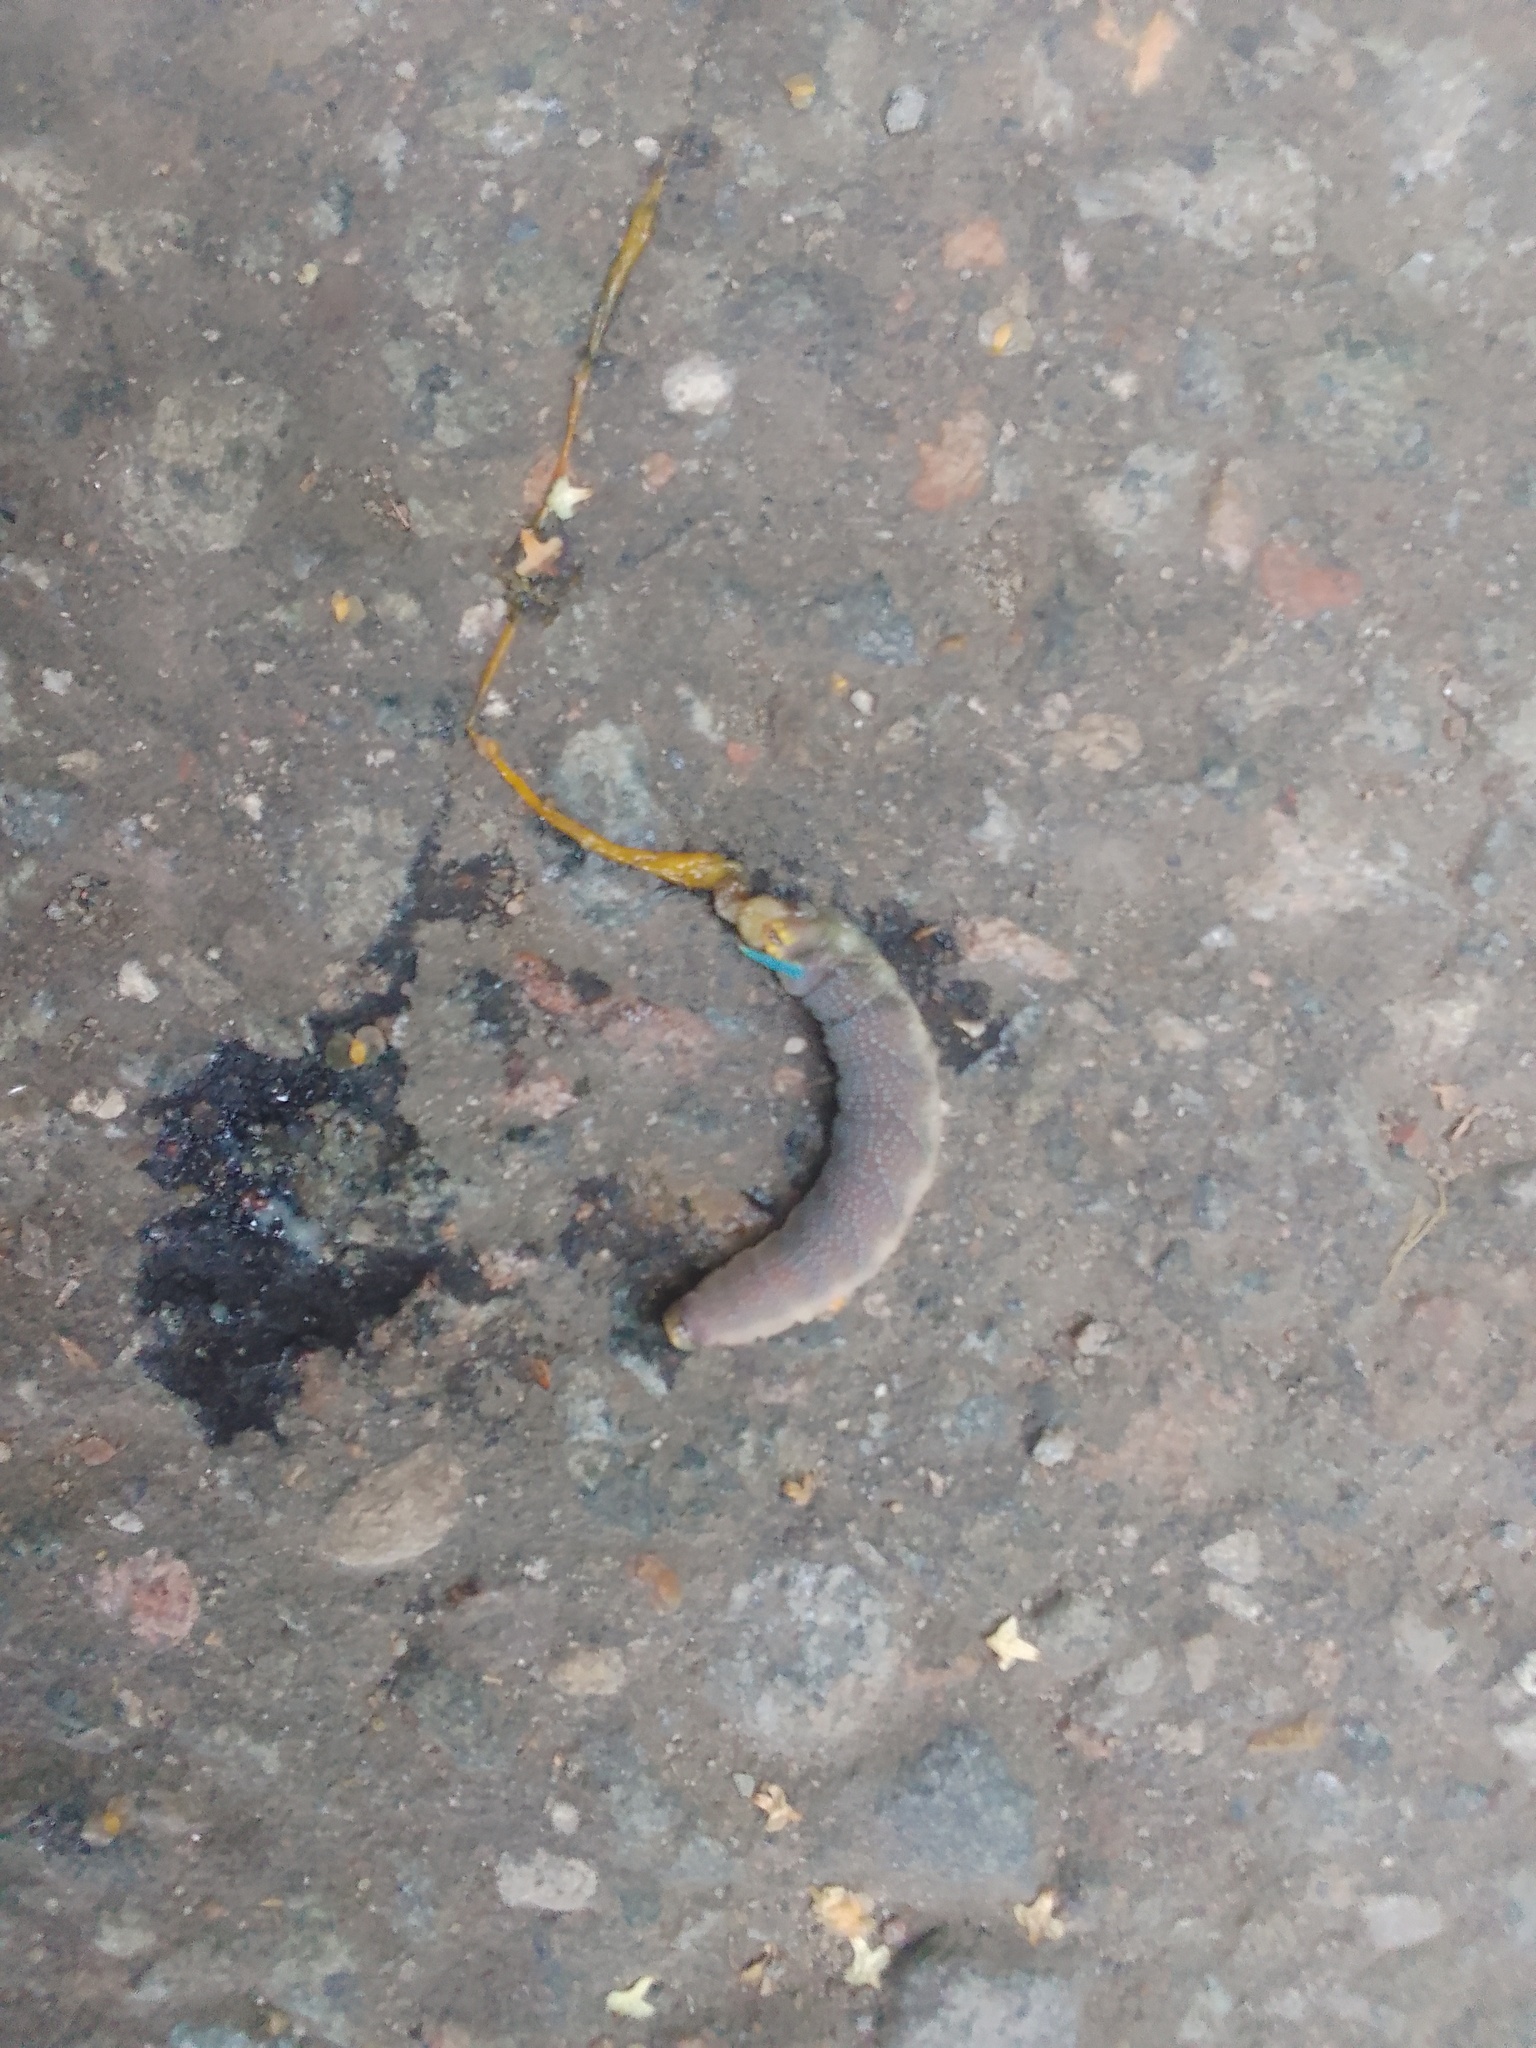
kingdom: Animalia
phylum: Arthropoda
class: Insecta
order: Lepidoptera
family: Sphingidae
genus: Mimas
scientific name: Mimas tiliae
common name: Lime hawk-moth
